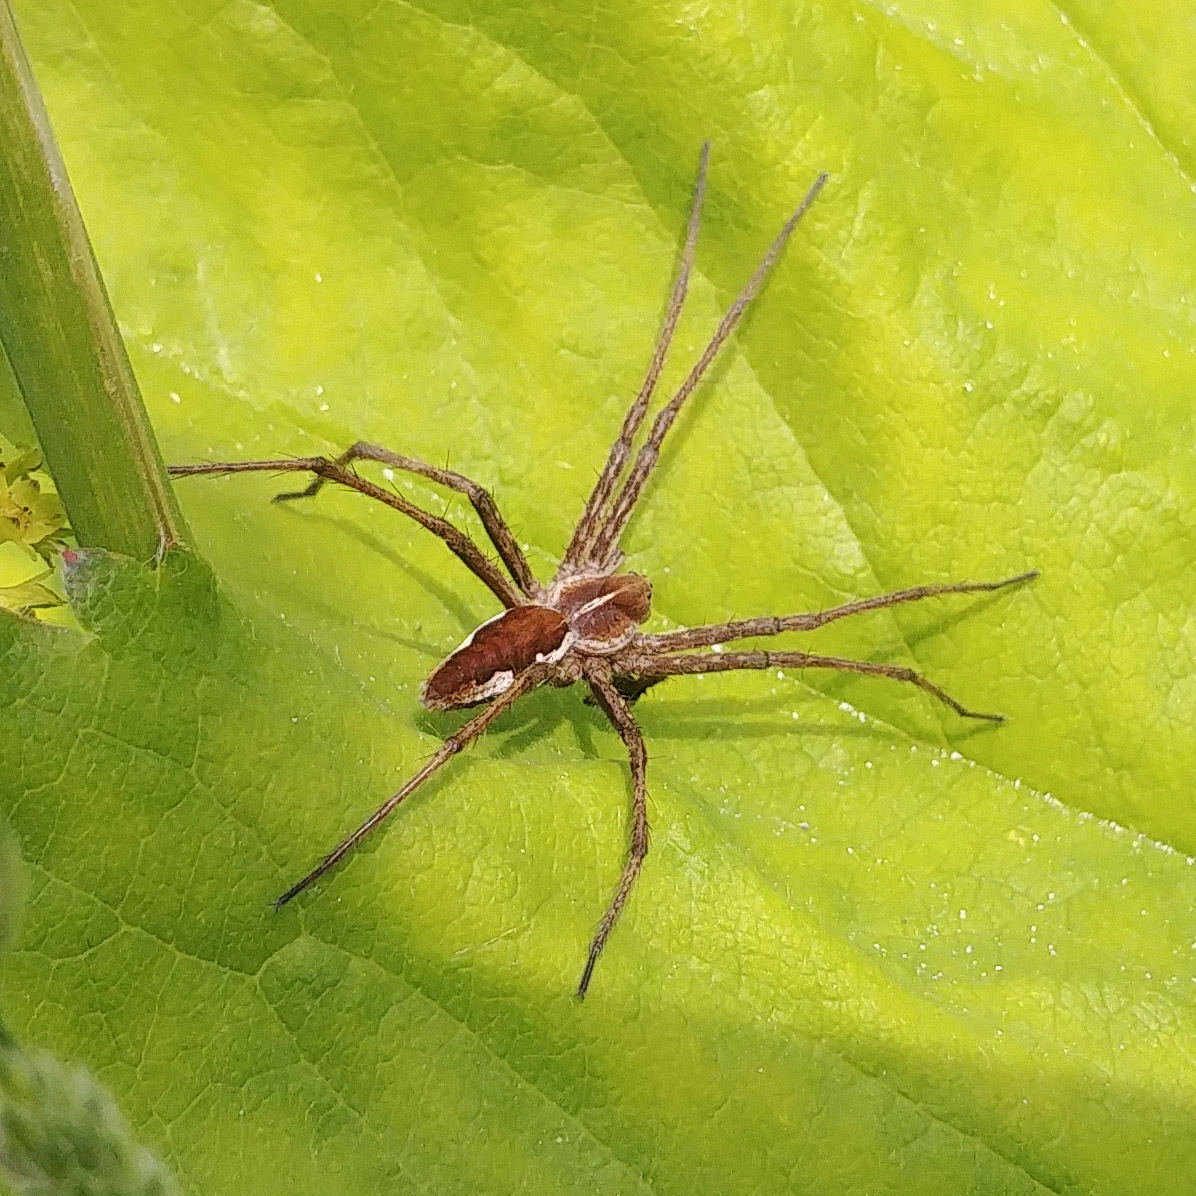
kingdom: Animalia
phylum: Arthropoda
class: Arachnida
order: Araneae
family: Pisauridae
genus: Pisaura
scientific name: Pisaura mirabilis
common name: Tent spider
